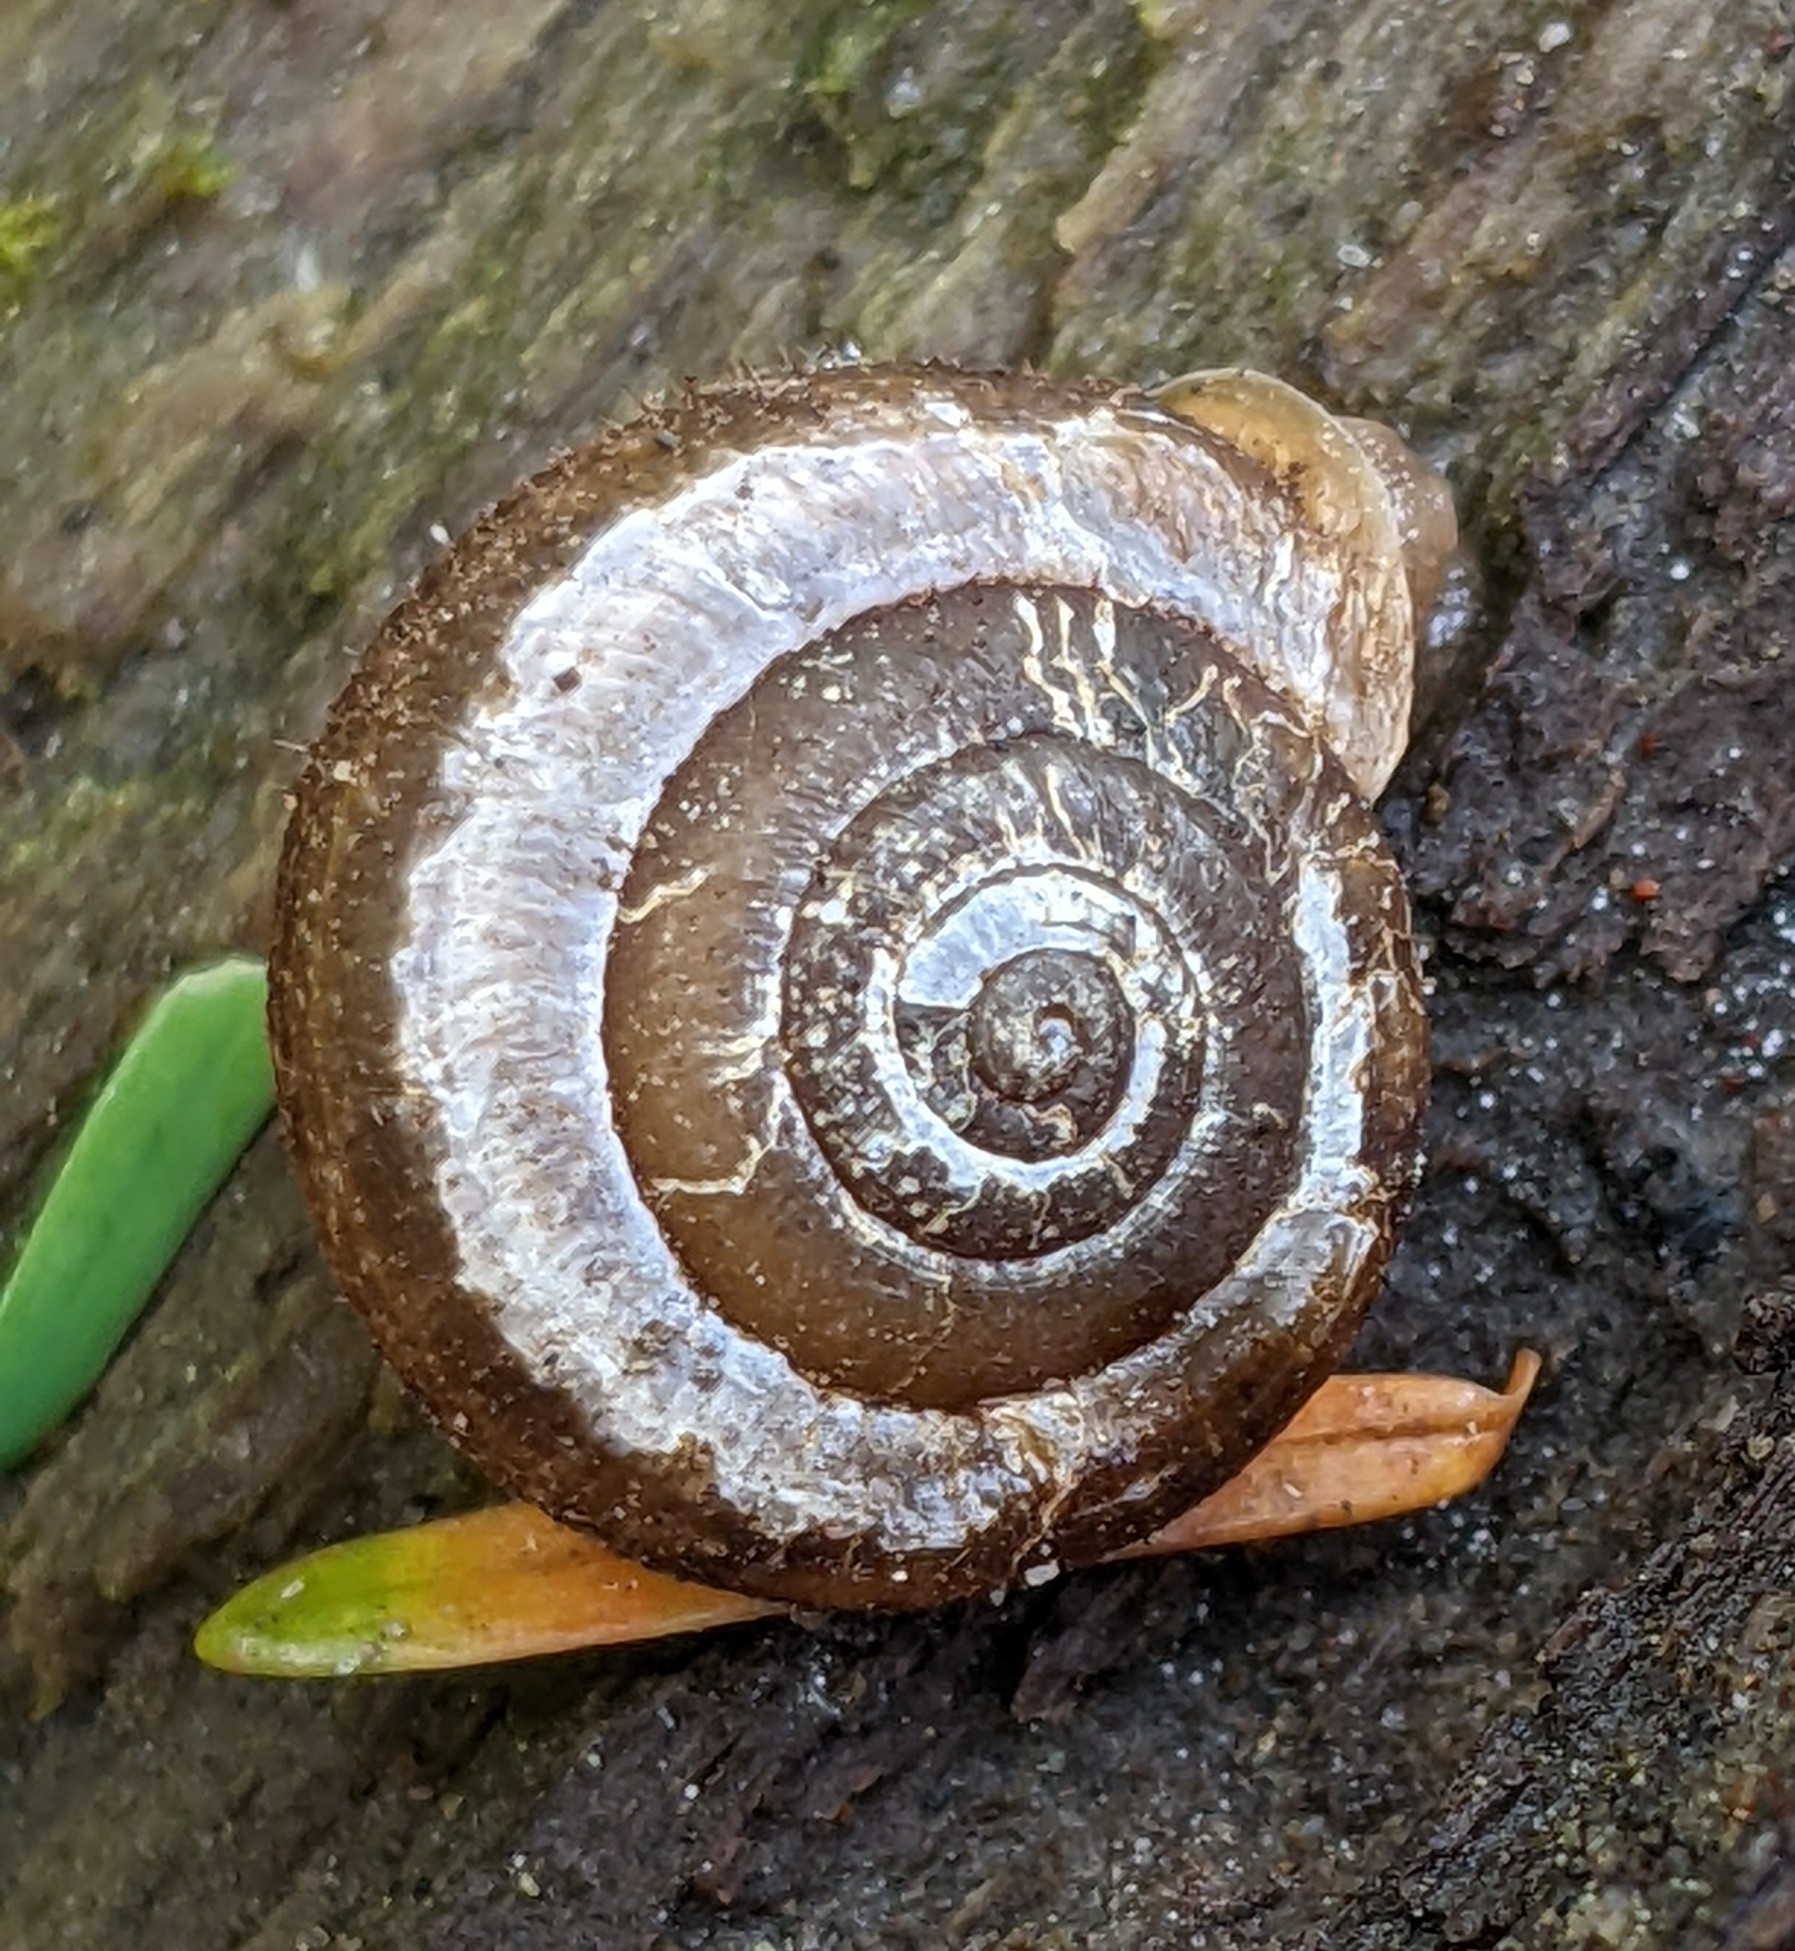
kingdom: Animalia
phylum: Mollusca
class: Gastropoda
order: Stylommatophora
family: Polygyridae
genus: Vespericola
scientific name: Vespericola columbianus
